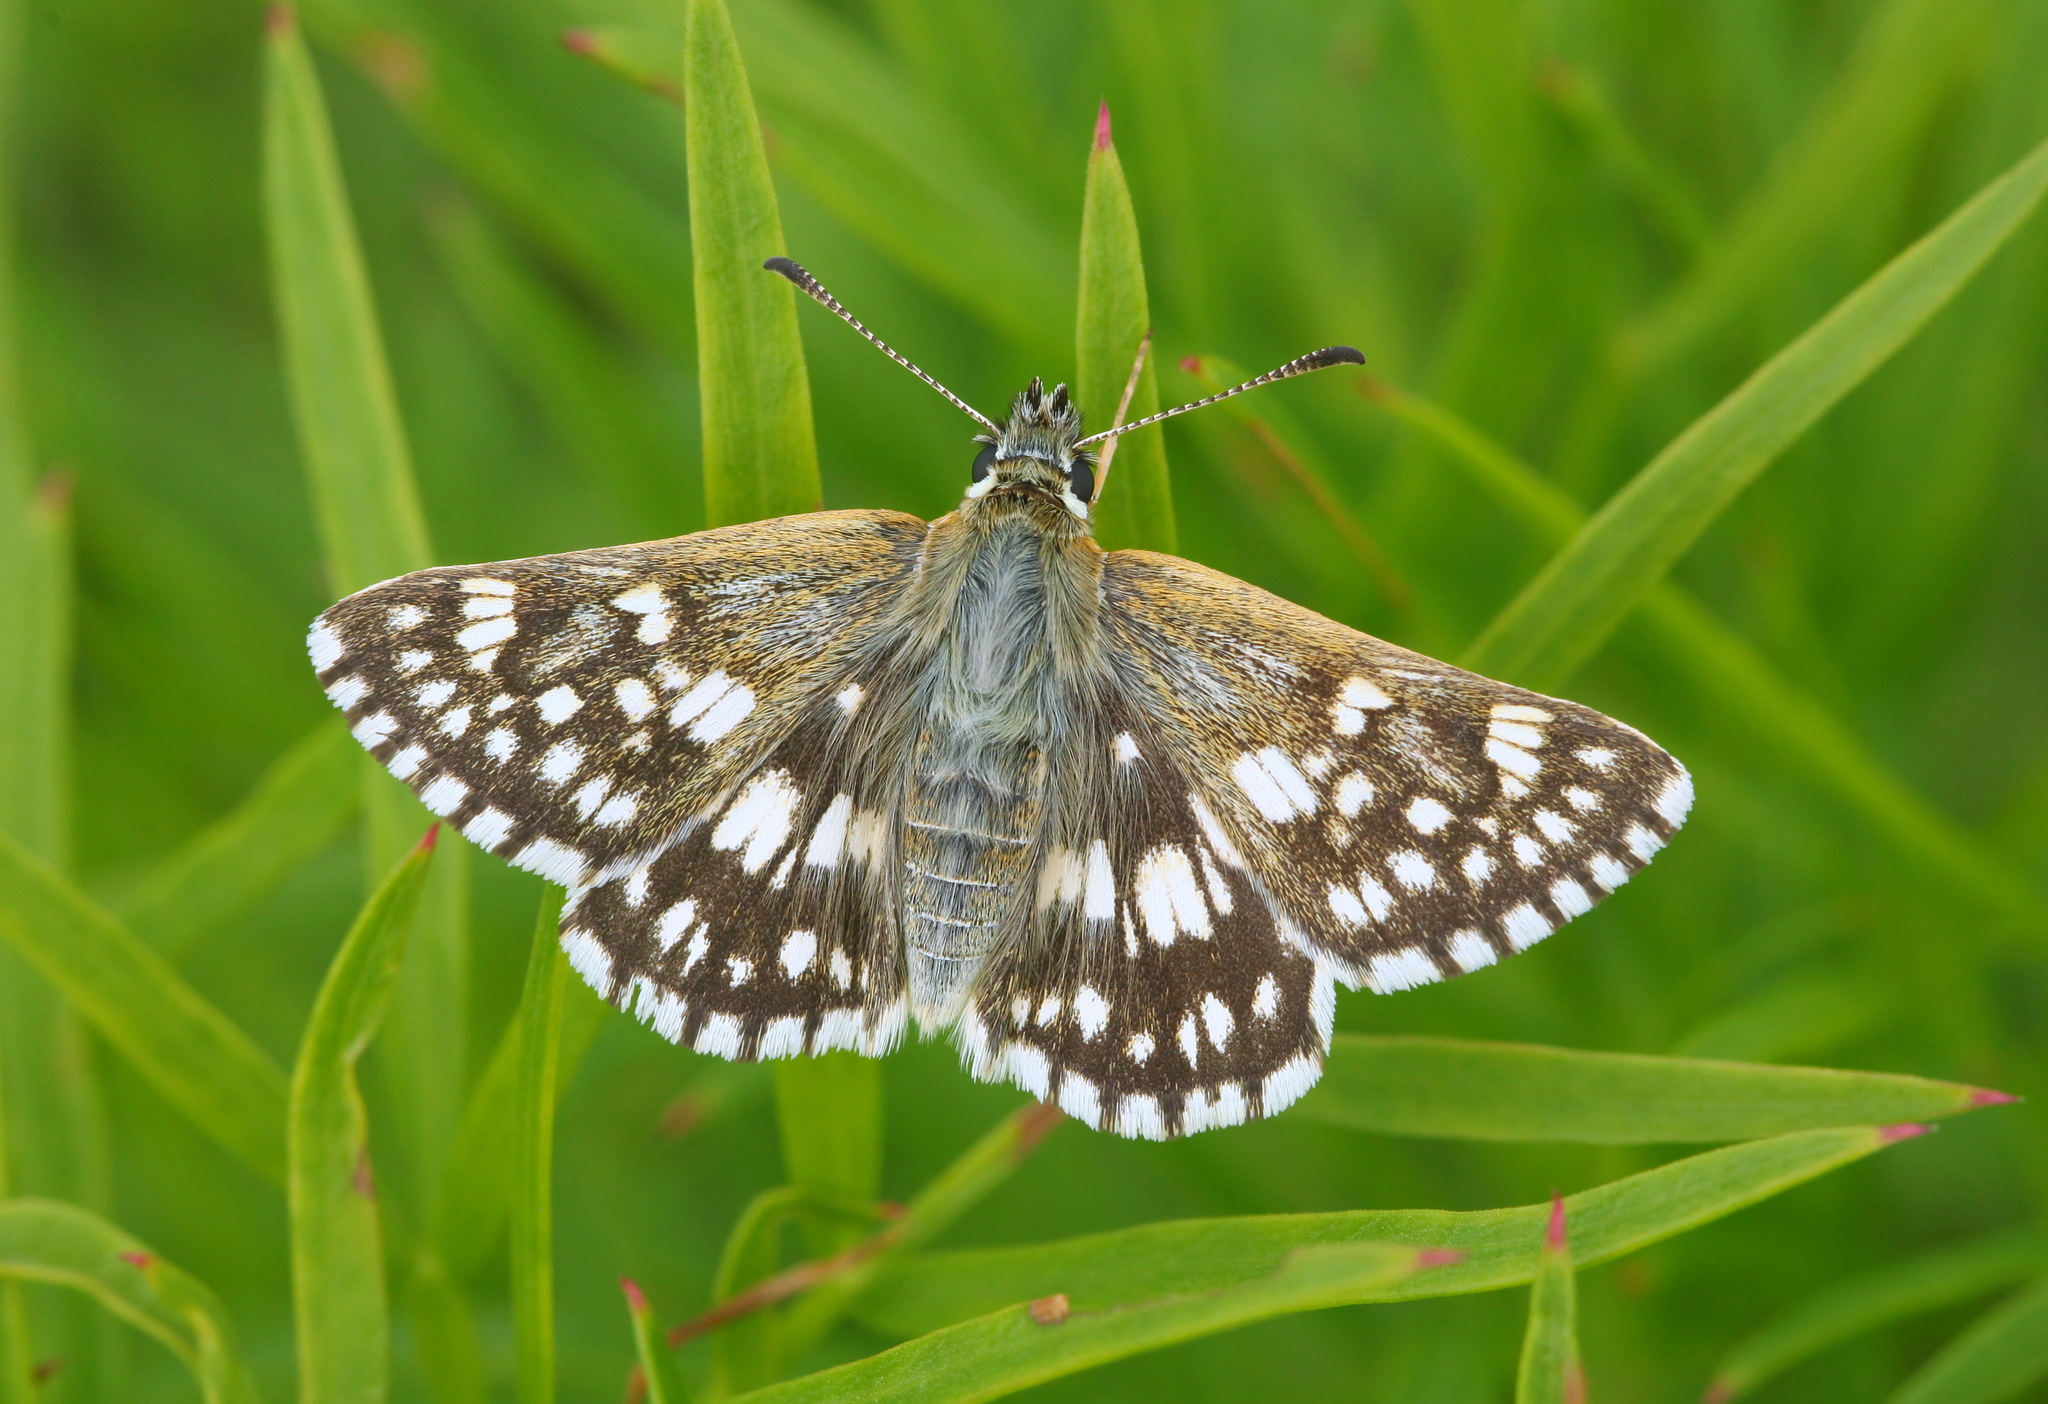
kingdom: Animalia
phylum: Arthropoda
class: Insecta
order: Lepidoptera
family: Hesperiidae
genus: Syrichtus
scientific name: Syrichtus cribrellum
